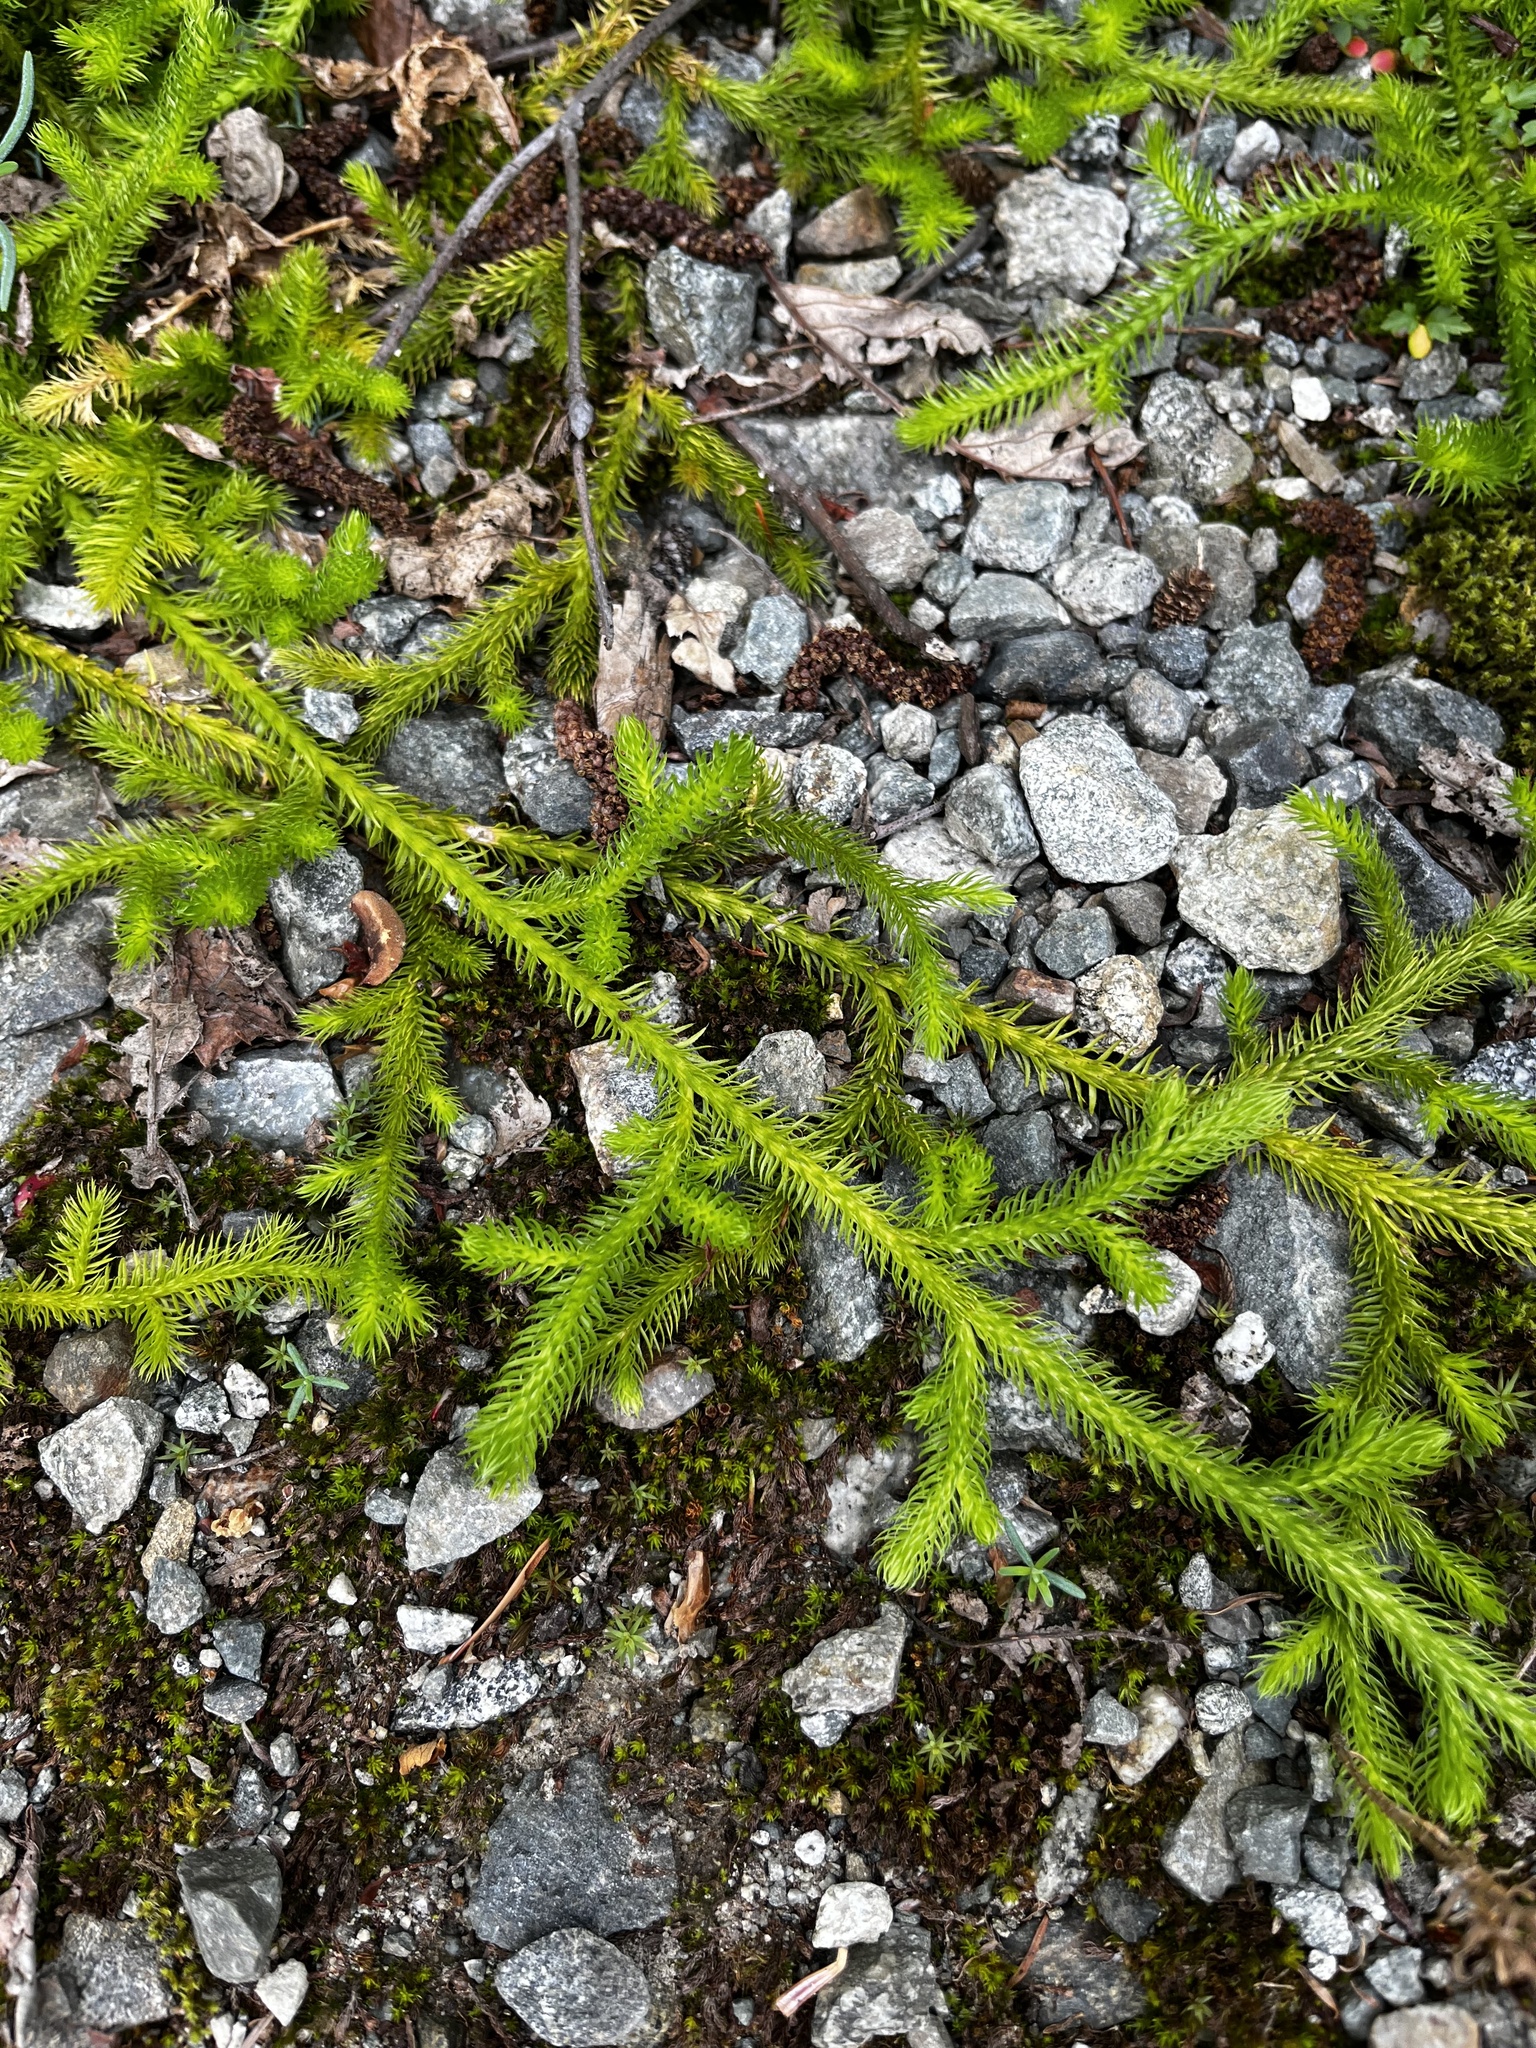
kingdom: Plantae
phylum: Tracheophyta
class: Lycopodiopsida
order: Lycopodiales
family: Lycopodiaceae
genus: Lycopodium
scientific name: Lycopodium clavatum
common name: Stag's-horn clubmoss
